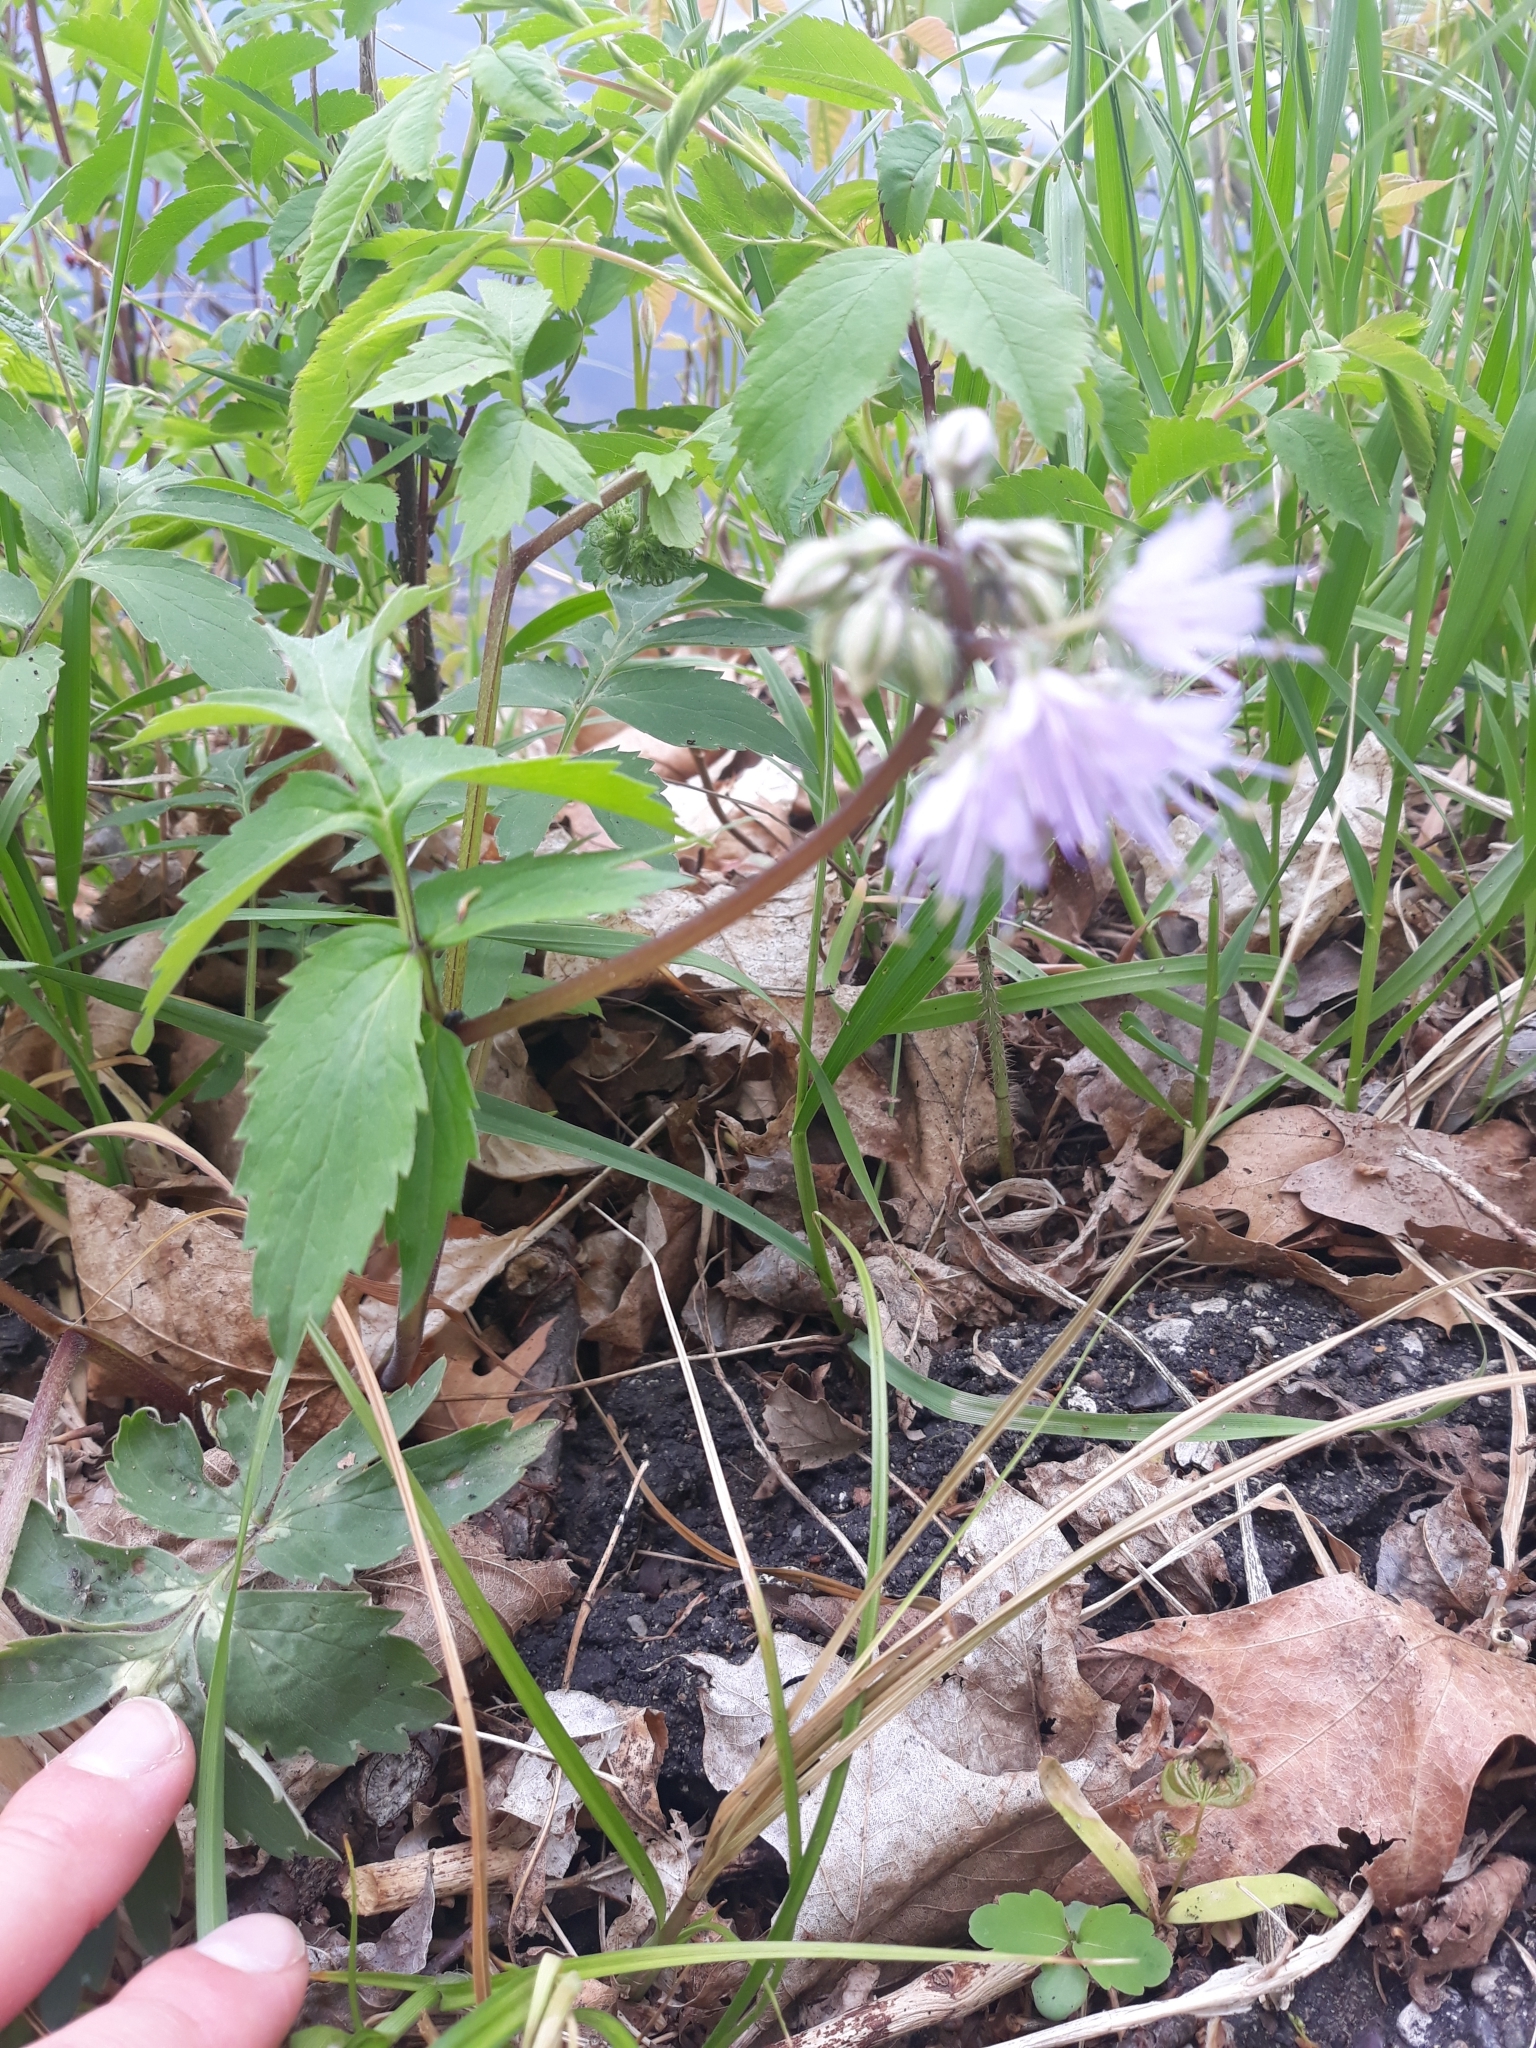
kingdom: Plantae
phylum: Tracheophyta
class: Magnoliopsida
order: Boraginales
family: Hydrophyllaceae
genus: Hydrophyllum
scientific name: Hydrophyllum virginianum
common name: Virginia waterleaf
